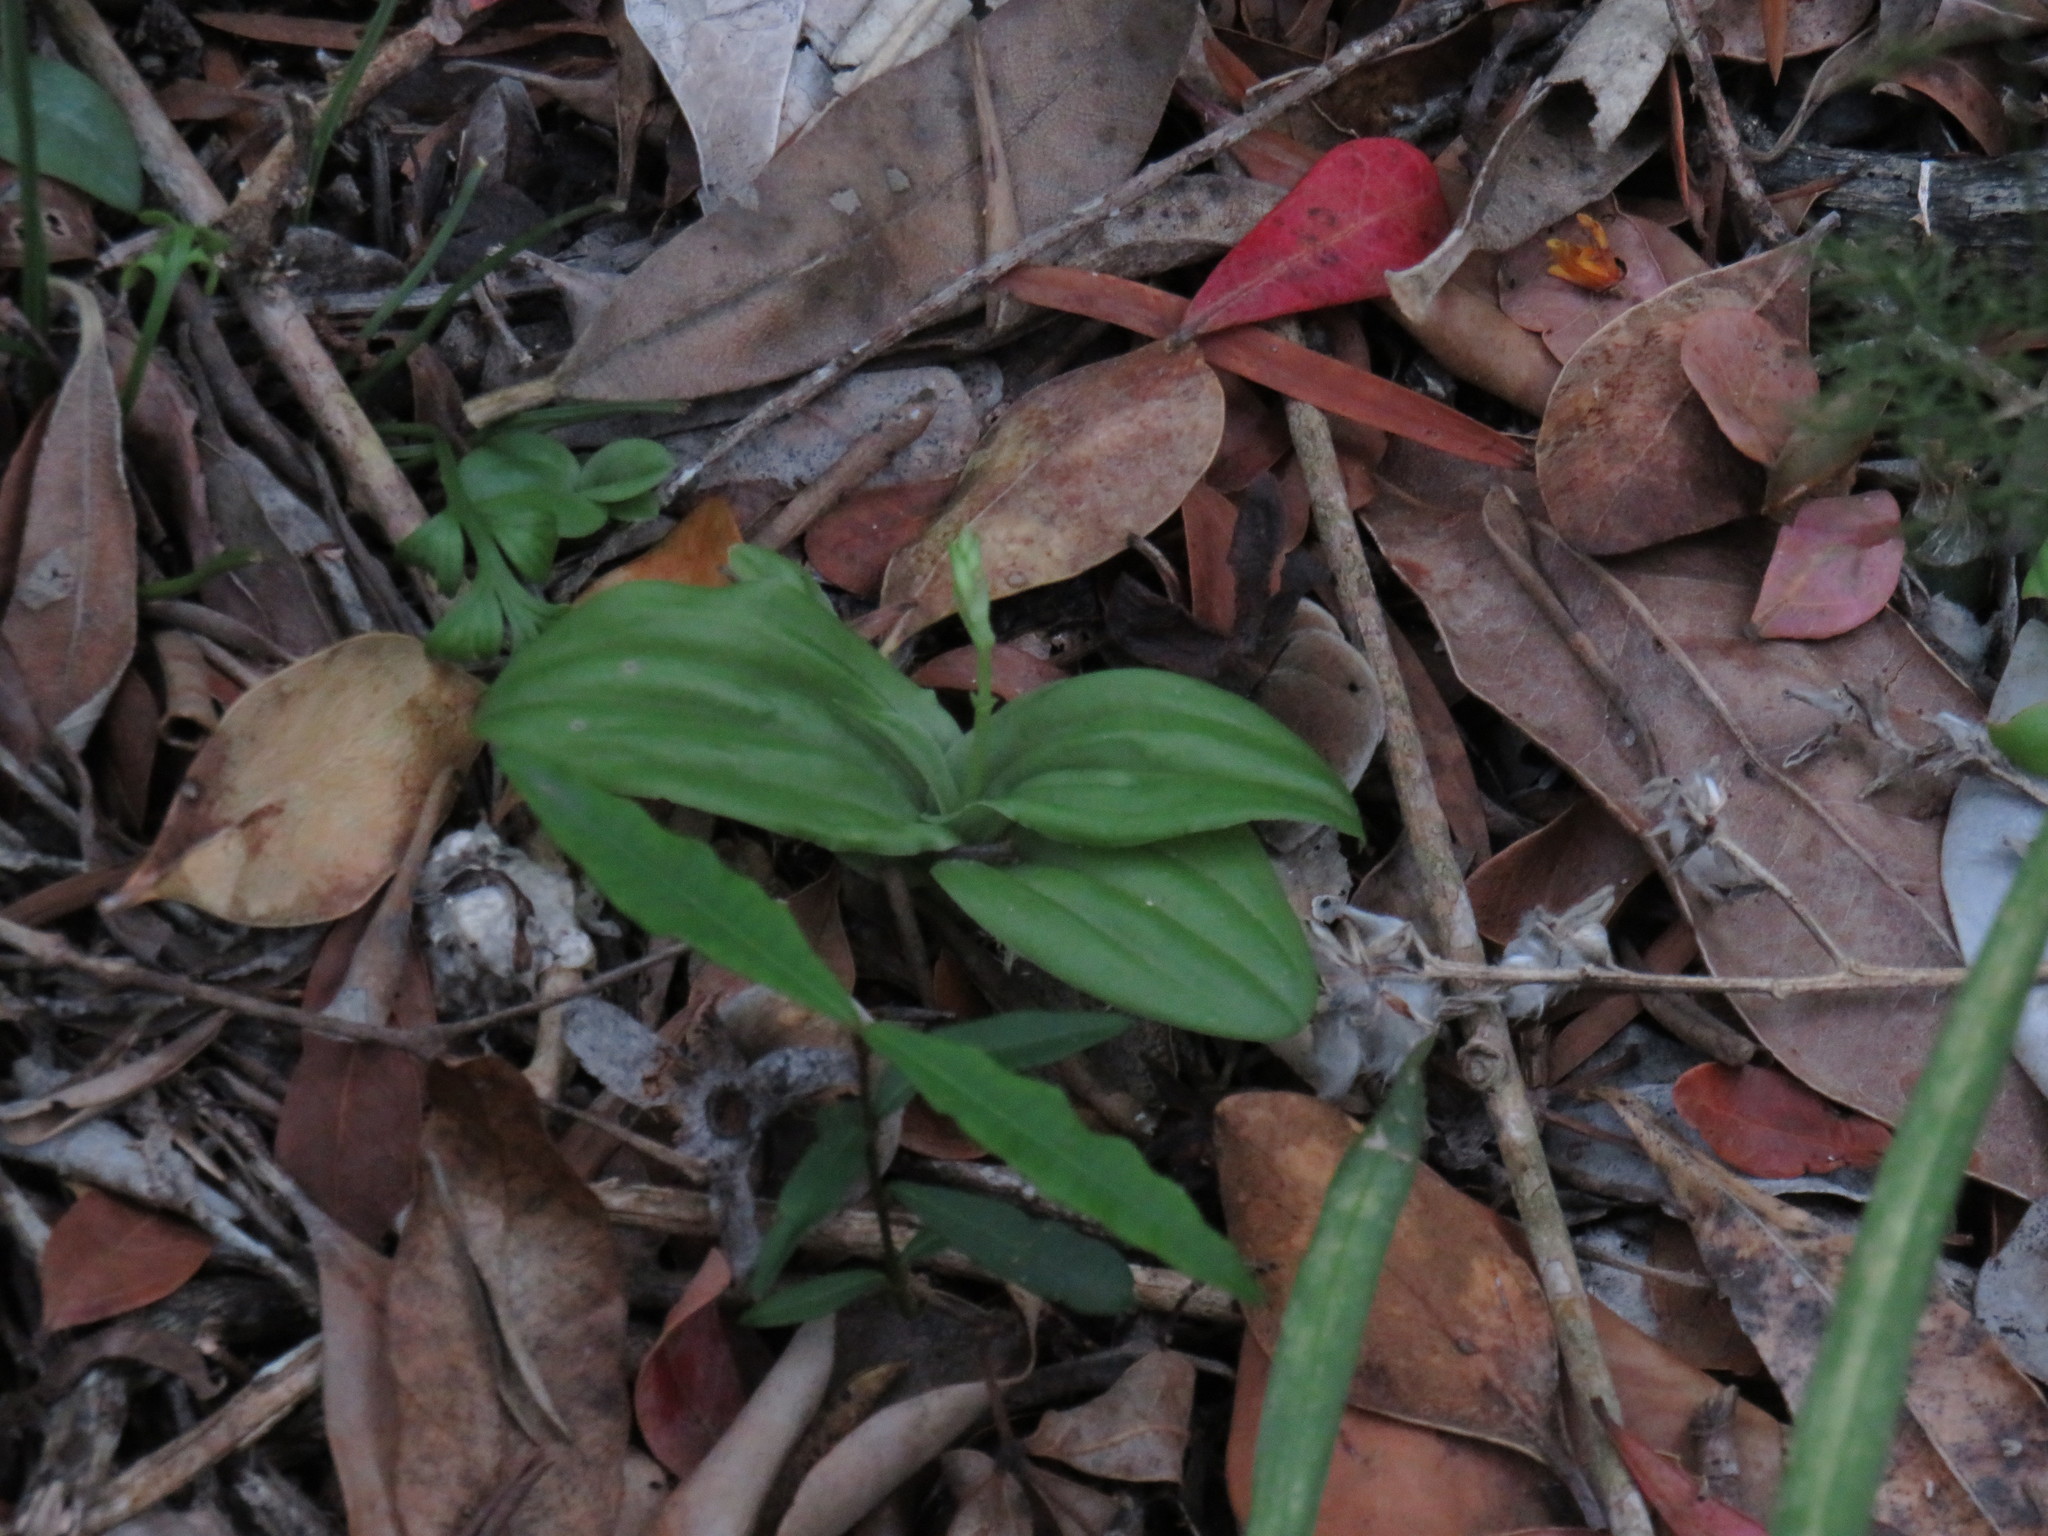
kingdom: Plantae
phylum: Tracheophyta
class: Liliopsida
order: Asparagales
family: Orchidaceae
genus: Liparis
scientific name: Liparis remota
